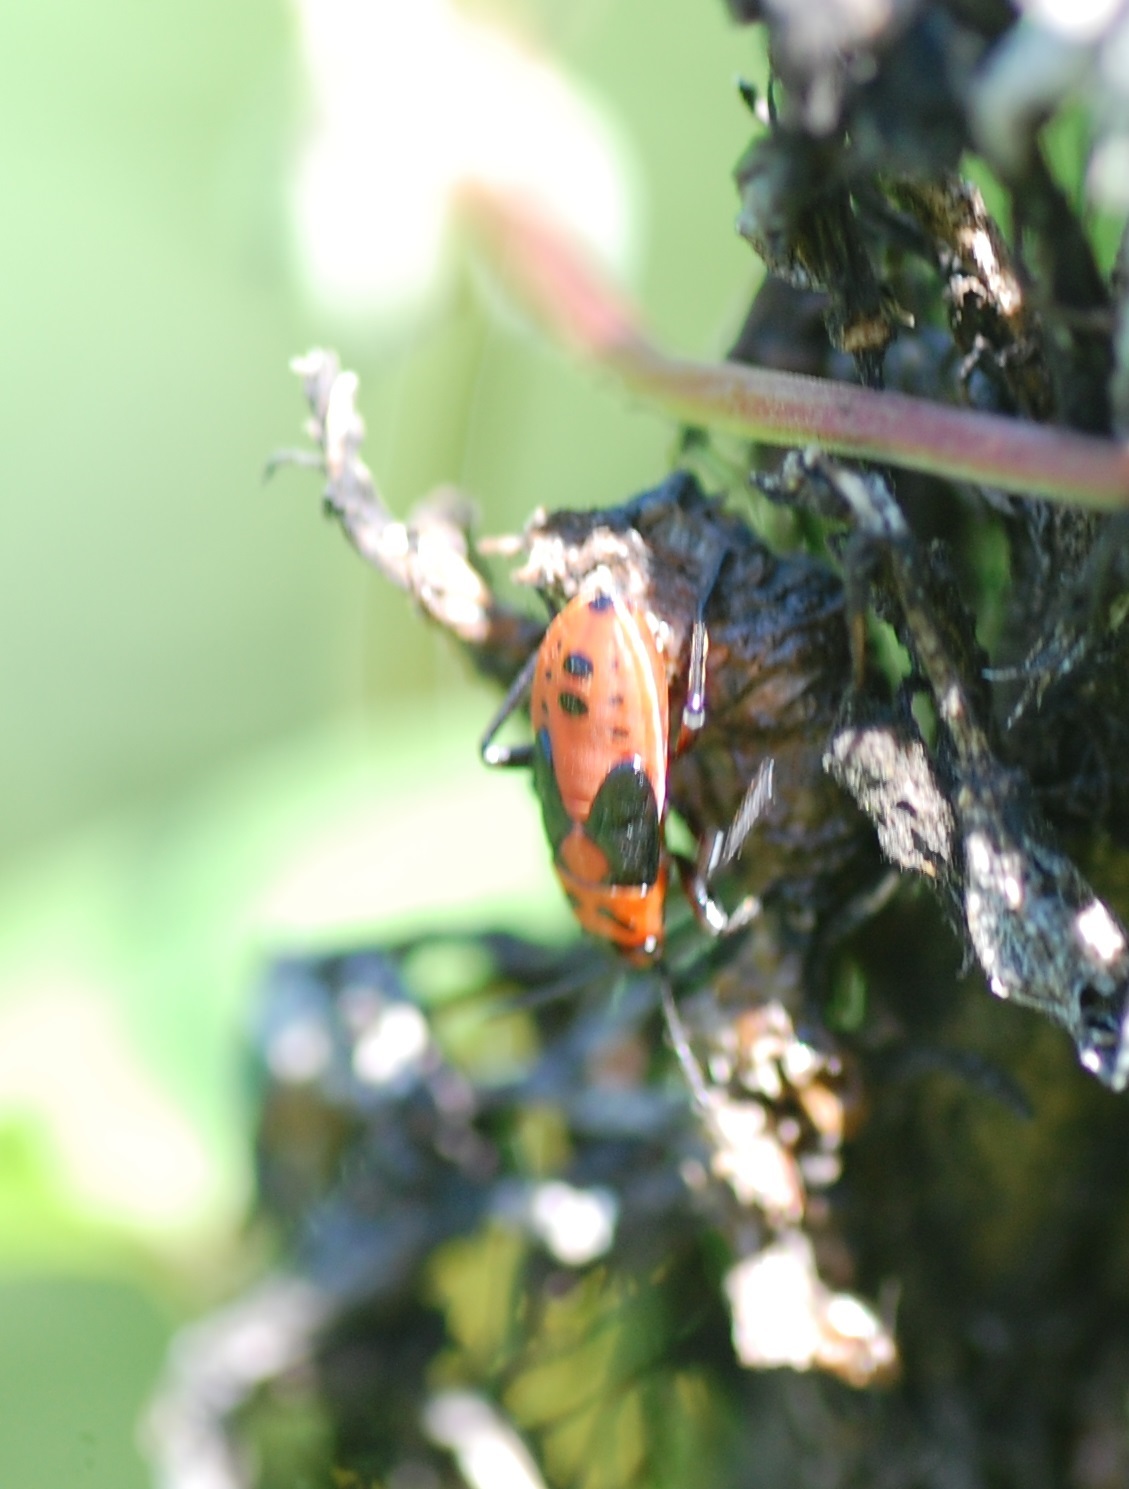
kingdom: Animalia
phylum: Arthropoda
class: Insecta
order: Hemiptera
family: Lygaeidae
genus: Lygaeus
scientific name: Lygaeus kalmii
